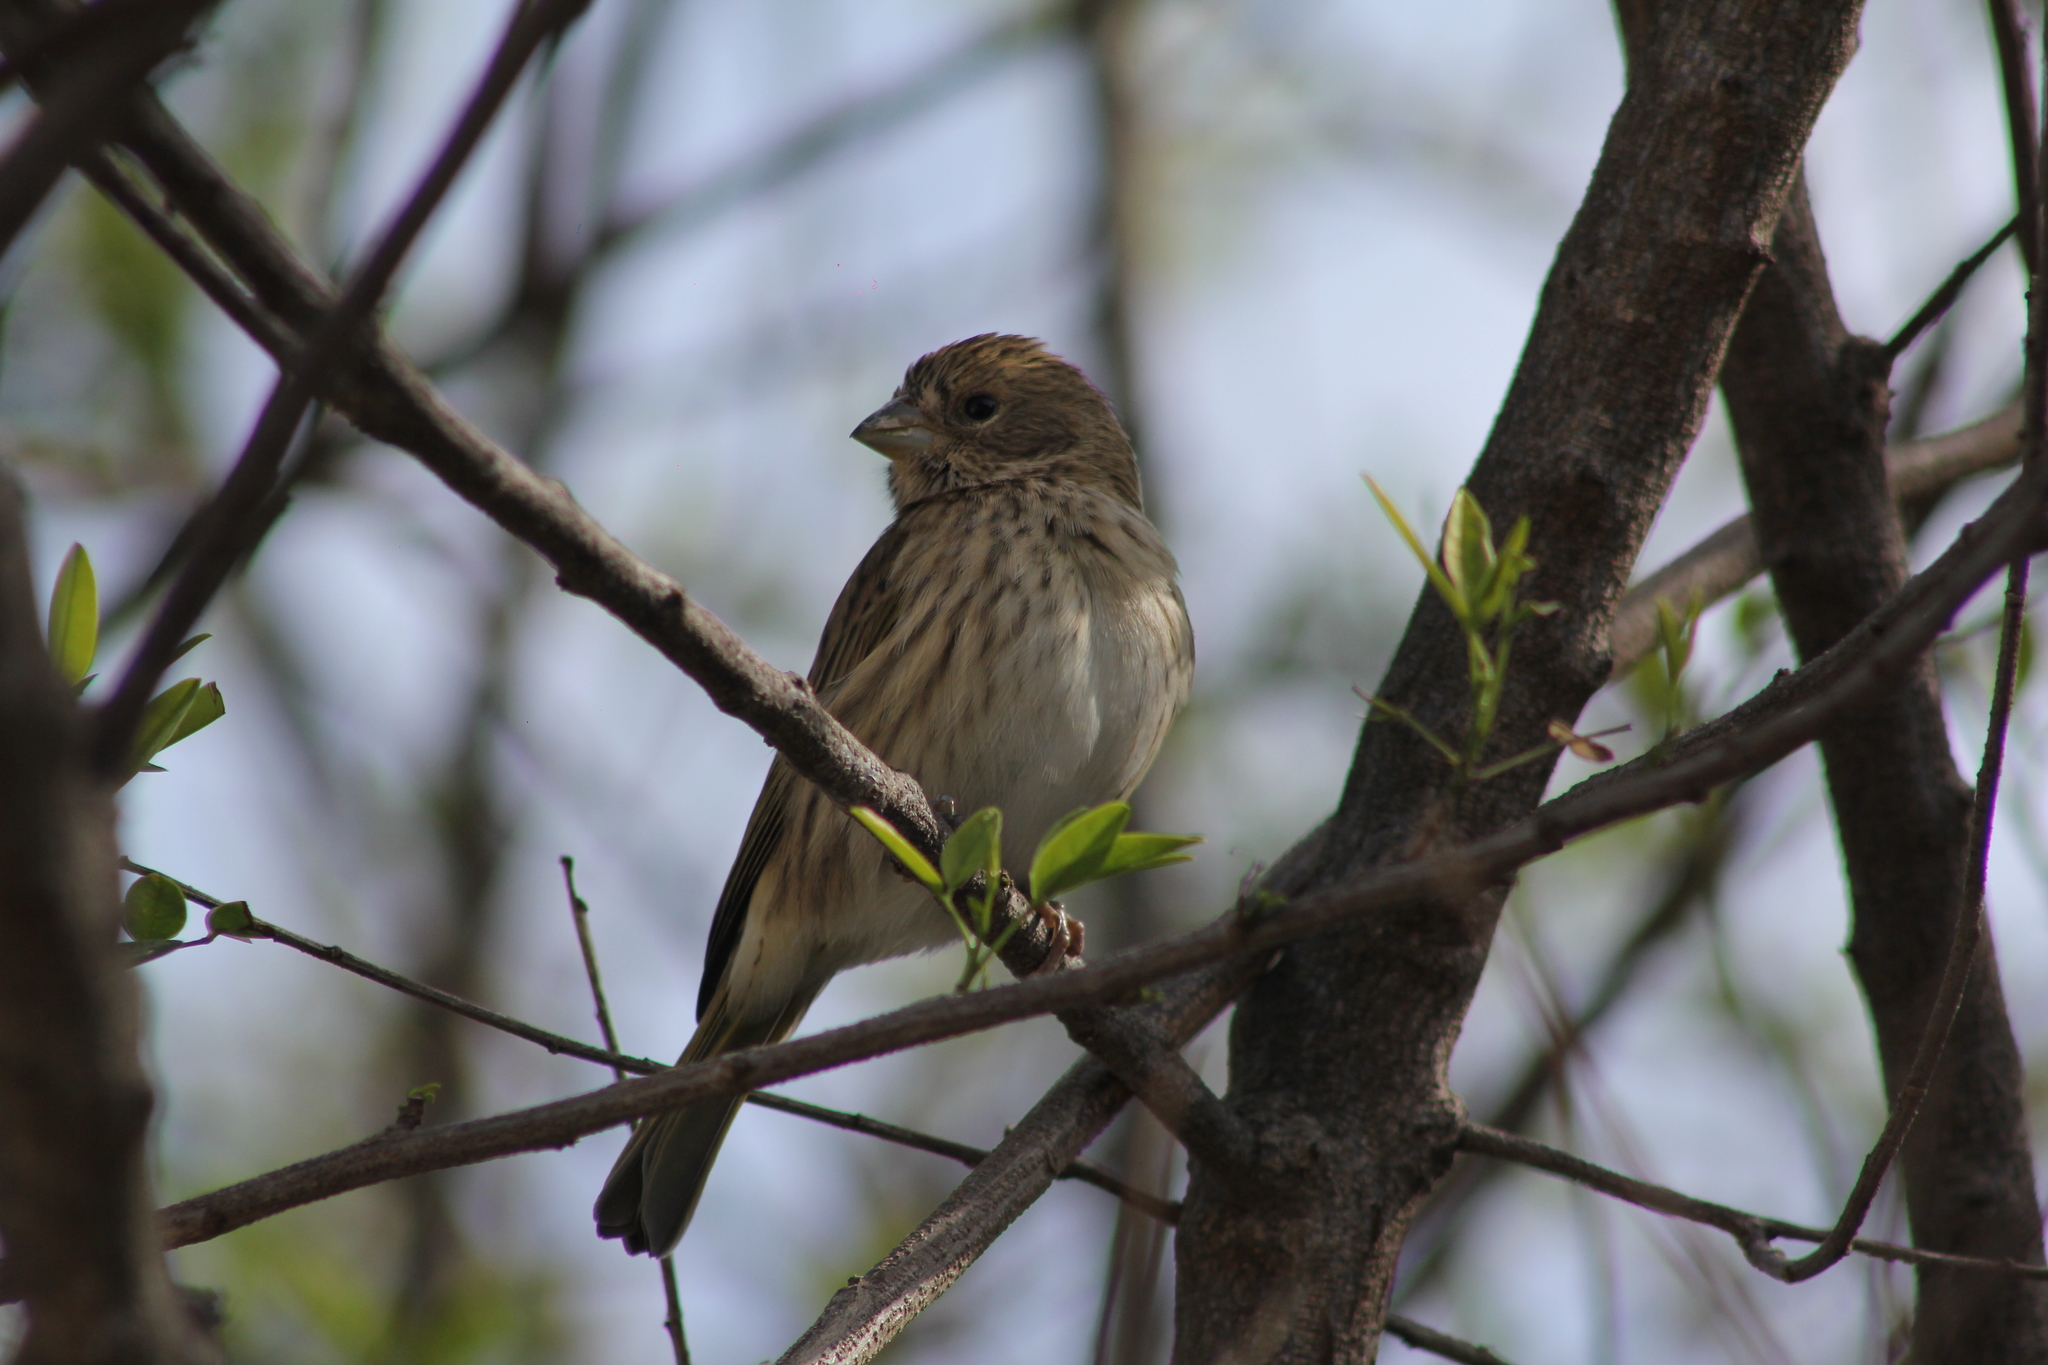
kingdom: Animalia
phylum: Chordata
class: Aves
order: Passeriformes
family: Thraupidae
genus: Sicalis
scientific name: Sicalis flaveola
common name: Saffron finch
